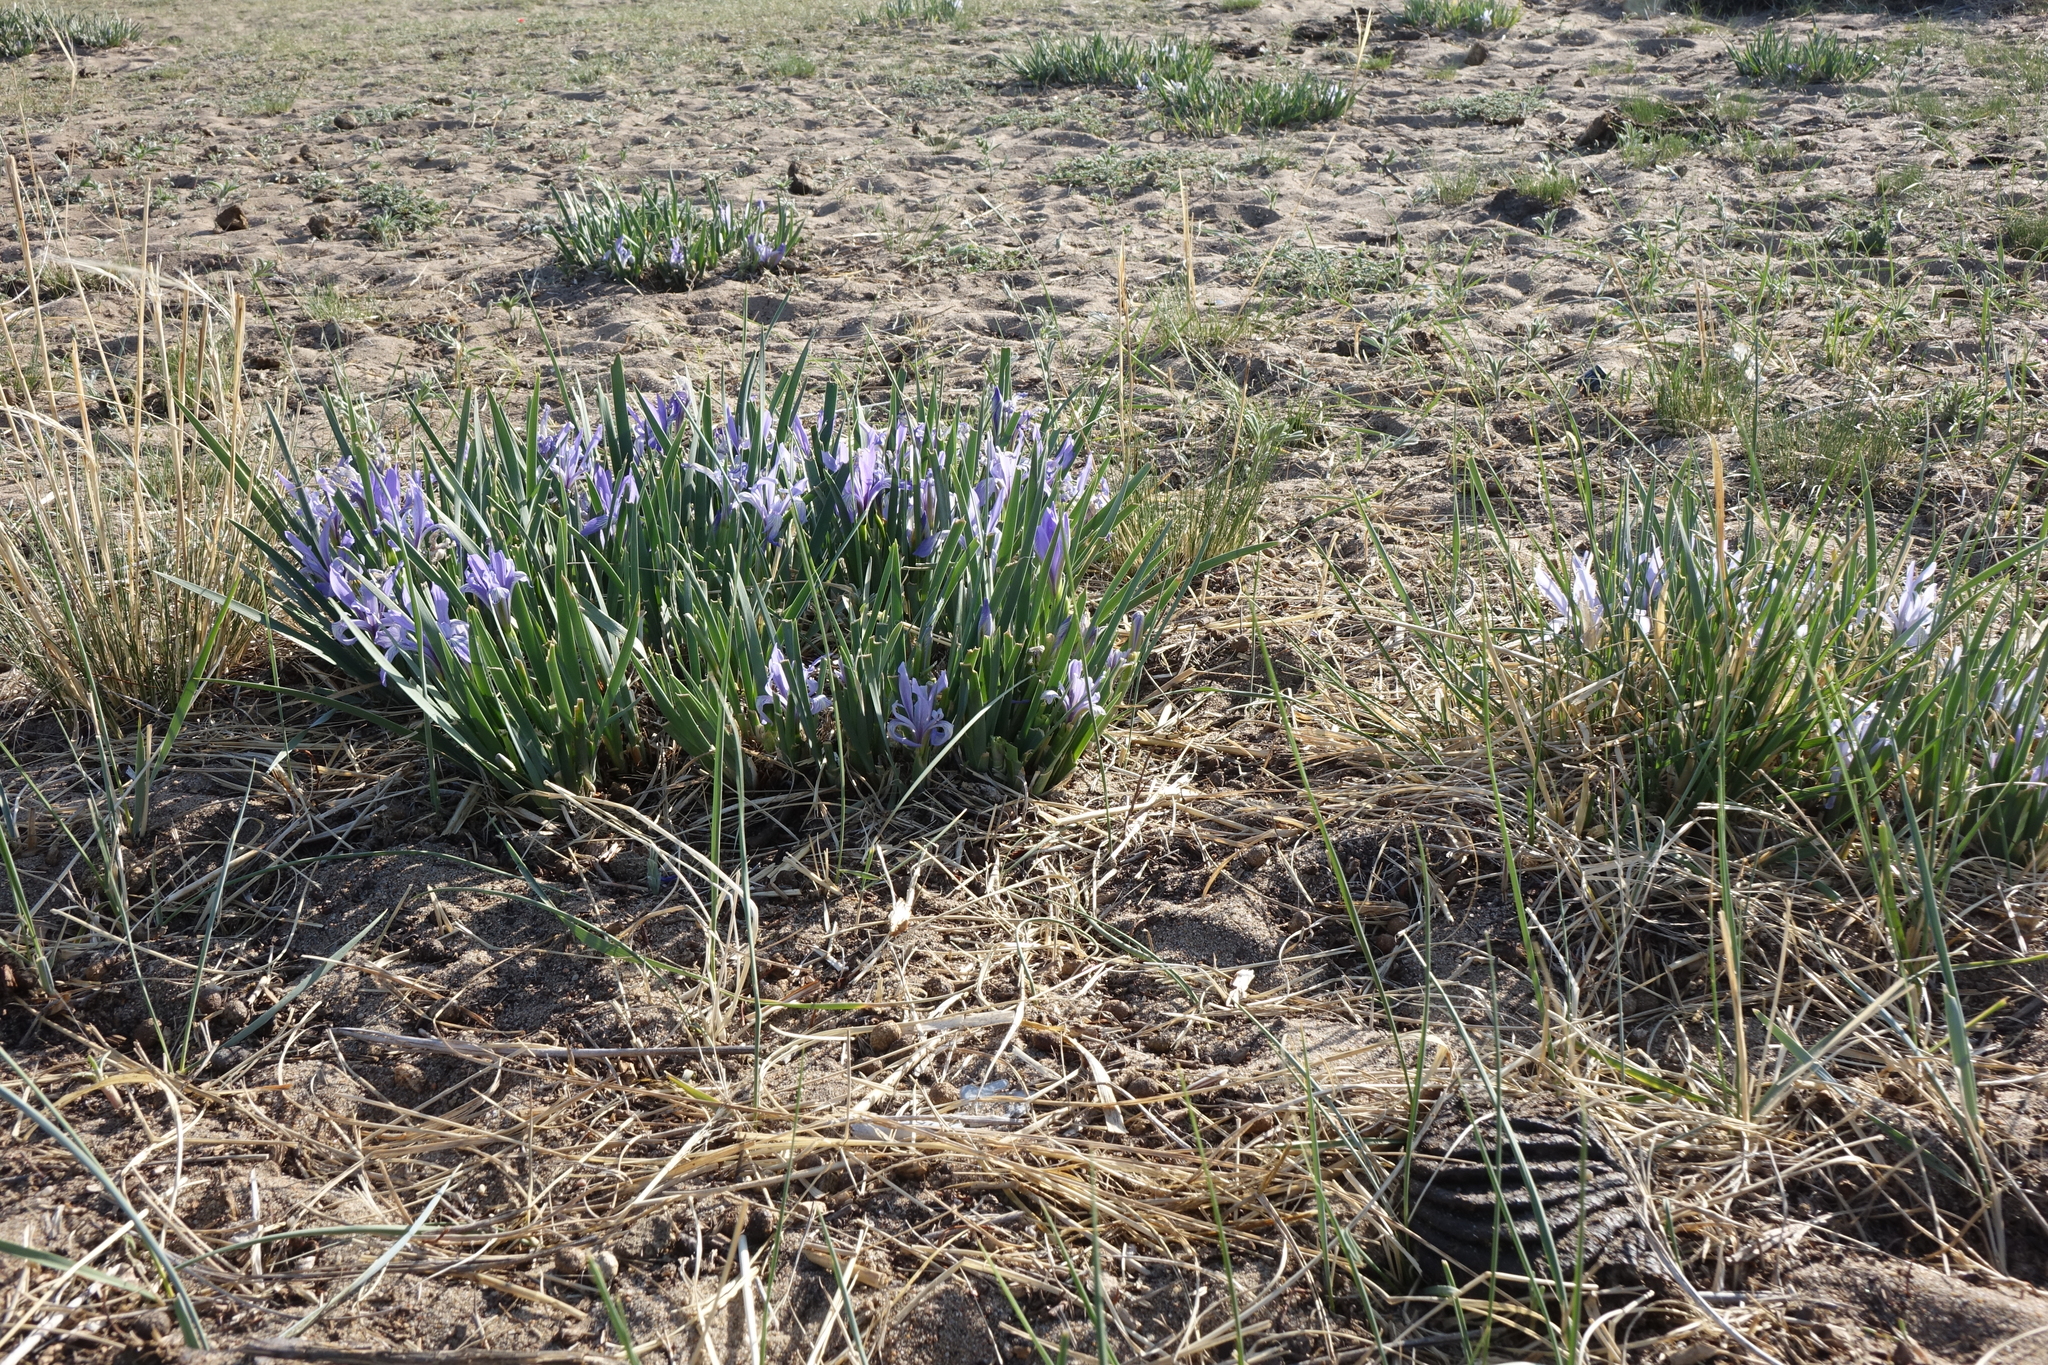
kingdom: Plantae
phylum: Tracheophyta
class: Liliopsida
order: Asparagales
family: Iridaceae
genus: Iris
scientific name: Iris lactea
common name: White-flower chinese iris
